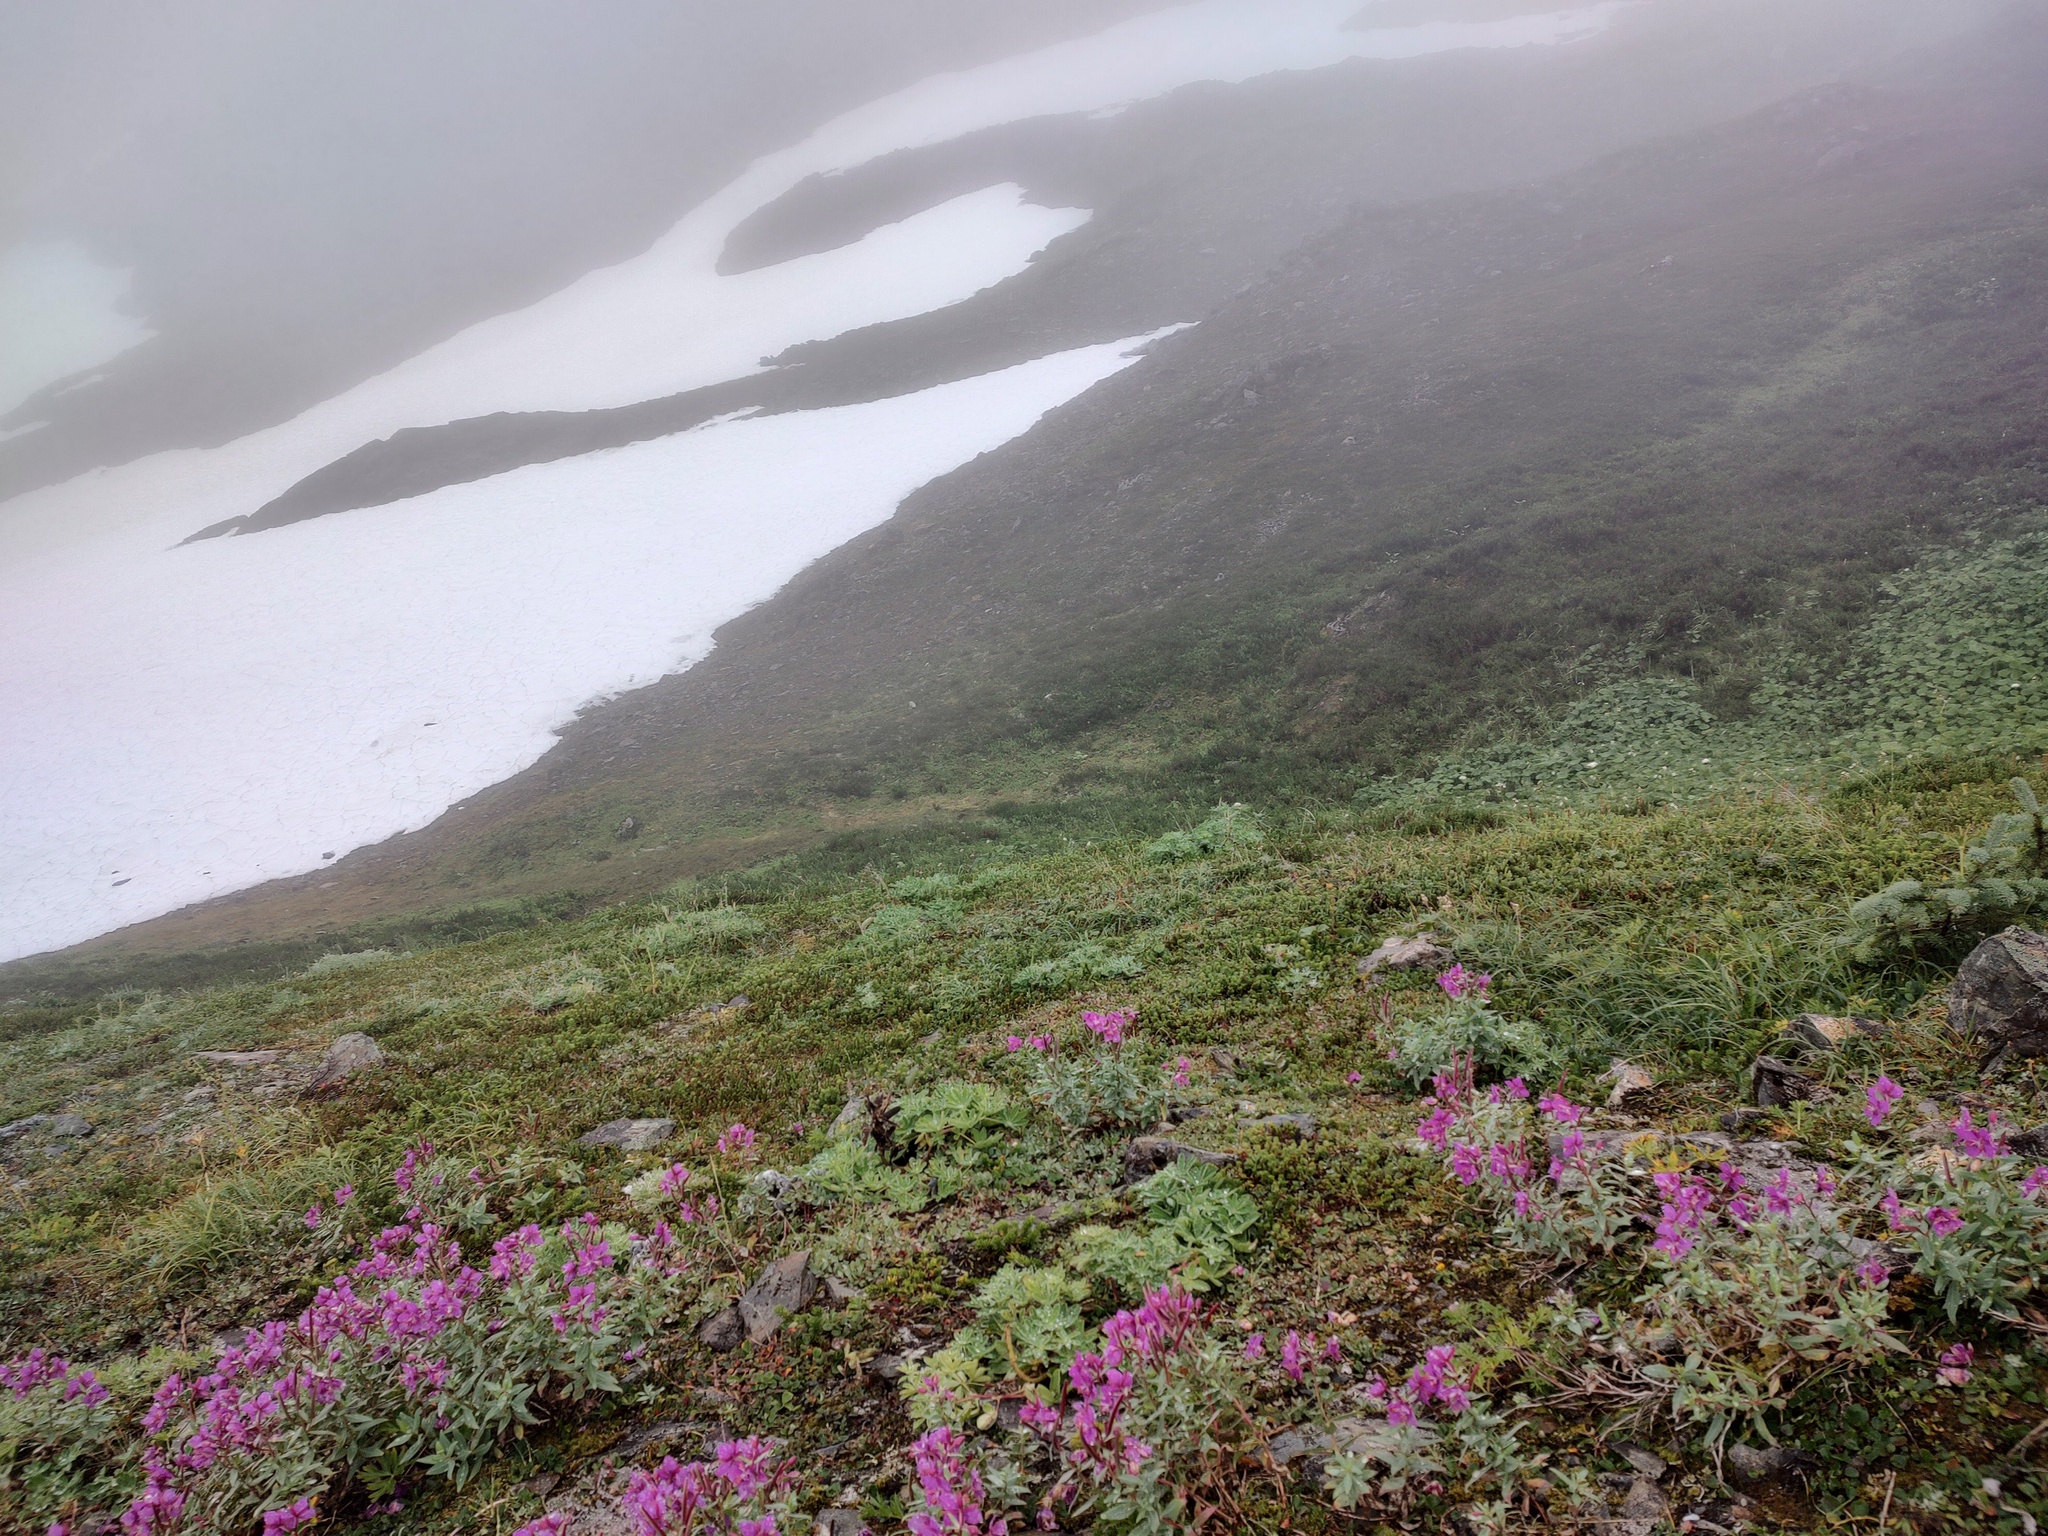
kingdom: Plantae
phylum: Tracheophyta
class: Magnoliopsida
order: Myrtales
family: Onagraceae
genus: Chamaenerion
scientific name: Chamaenerion latifolium
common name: Dwarf fireweed
